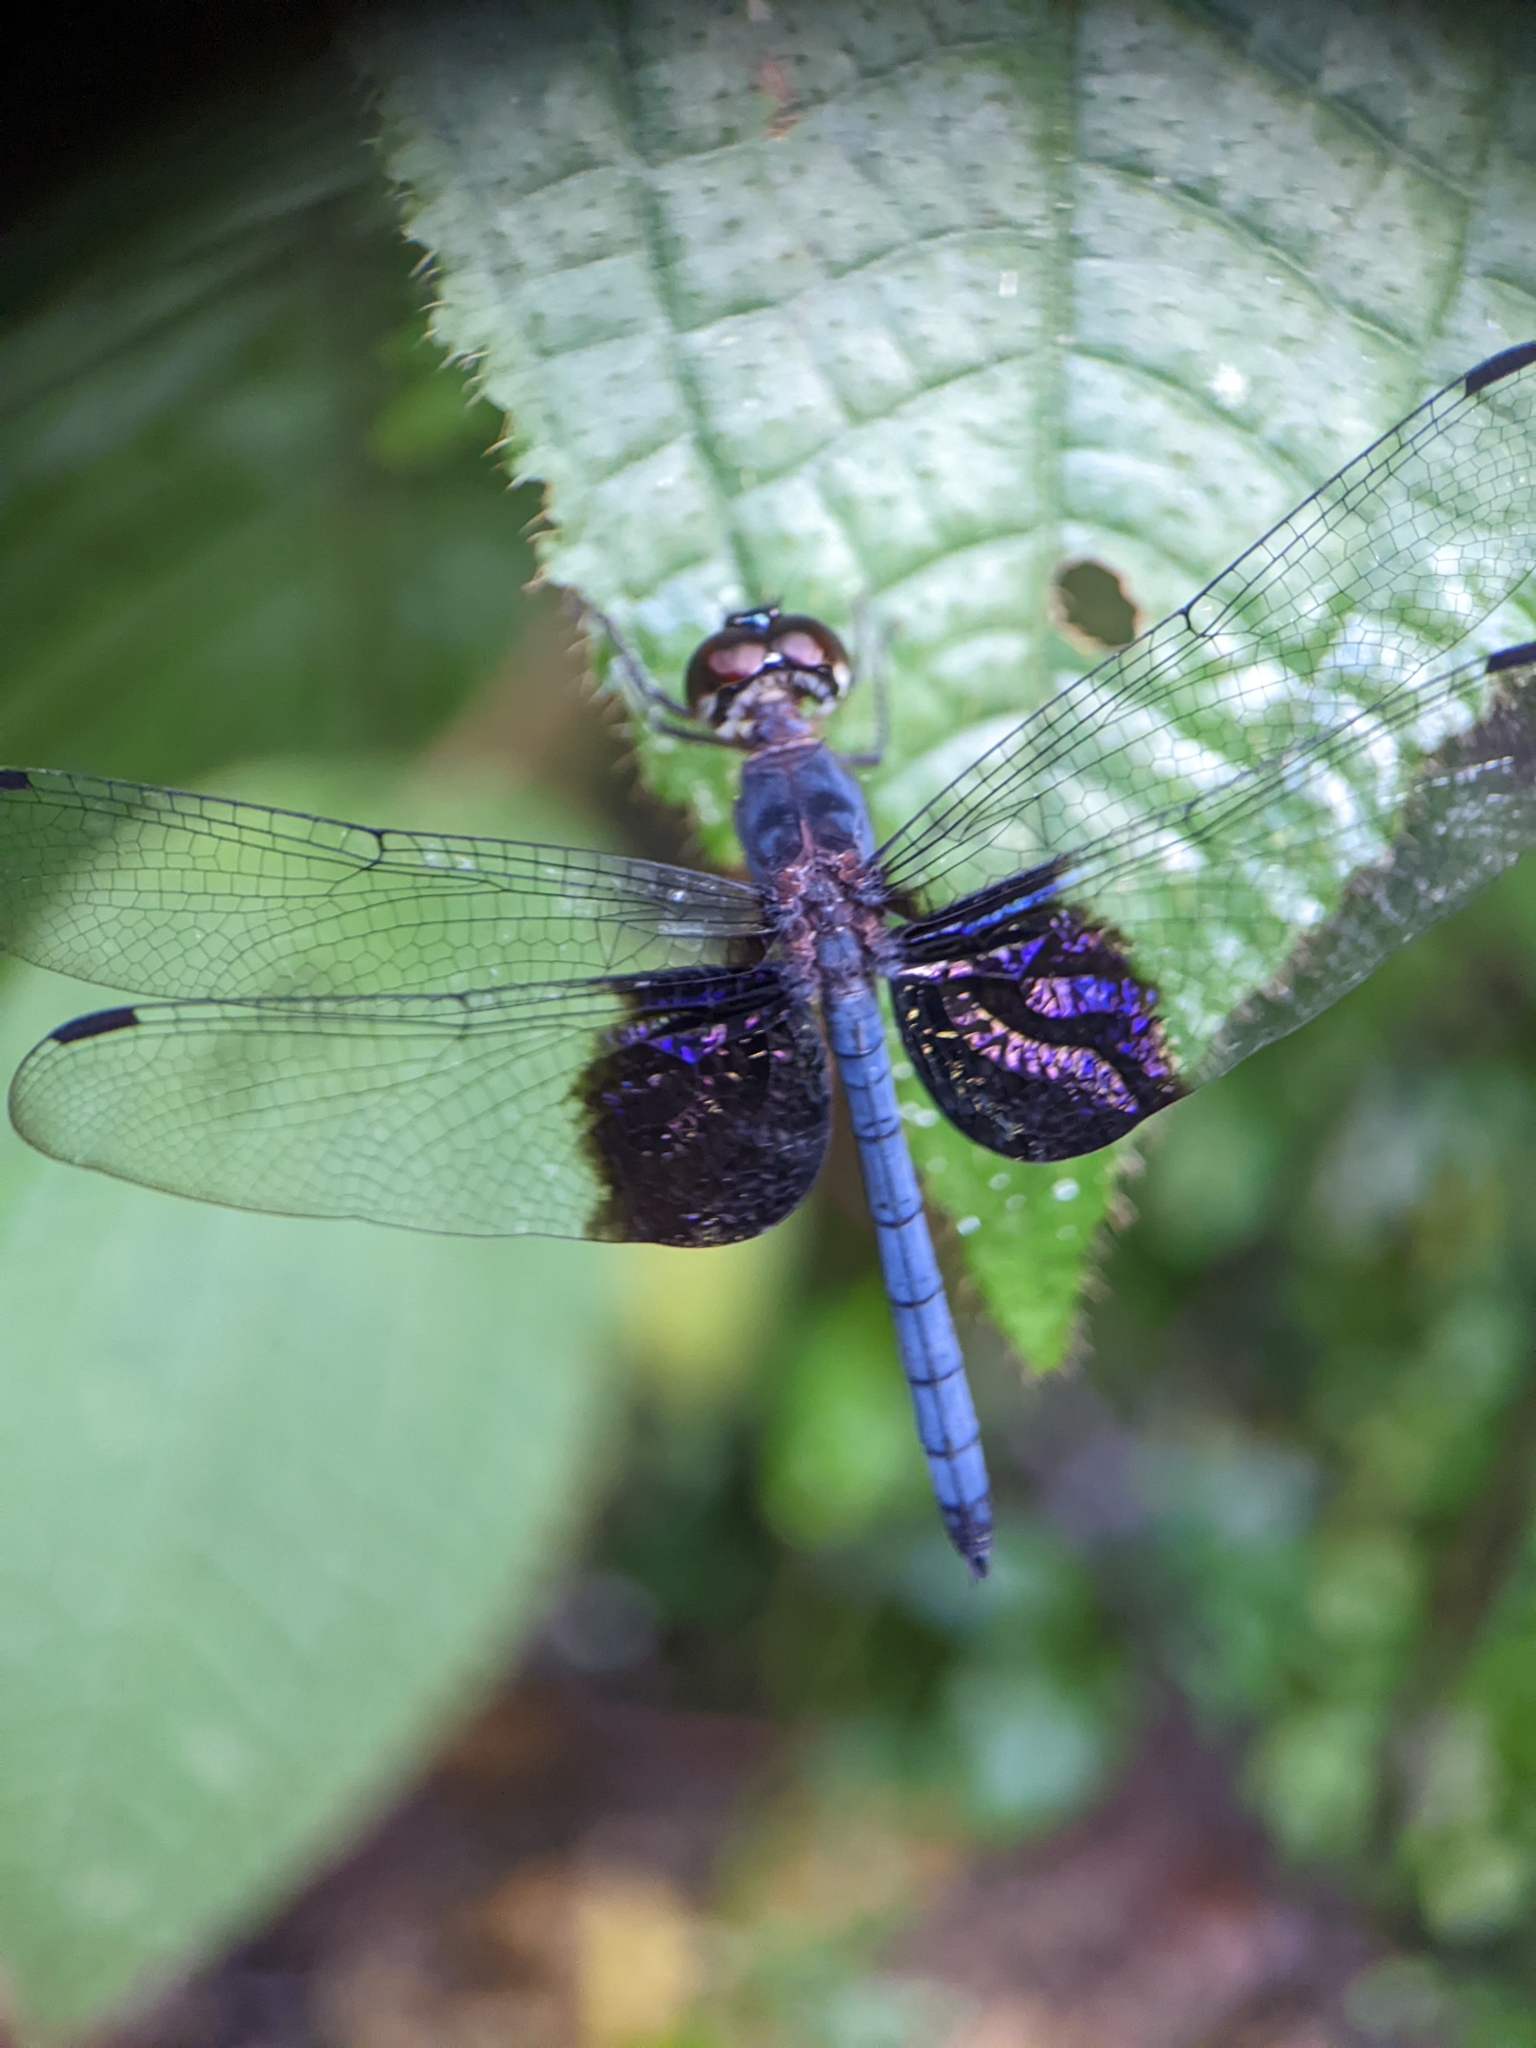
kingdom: Animalia
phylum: Arthropoda
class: Insecta
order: Odonata
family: Libellulidae
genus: Tyriobapta
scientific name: Tyriobapta torrida
